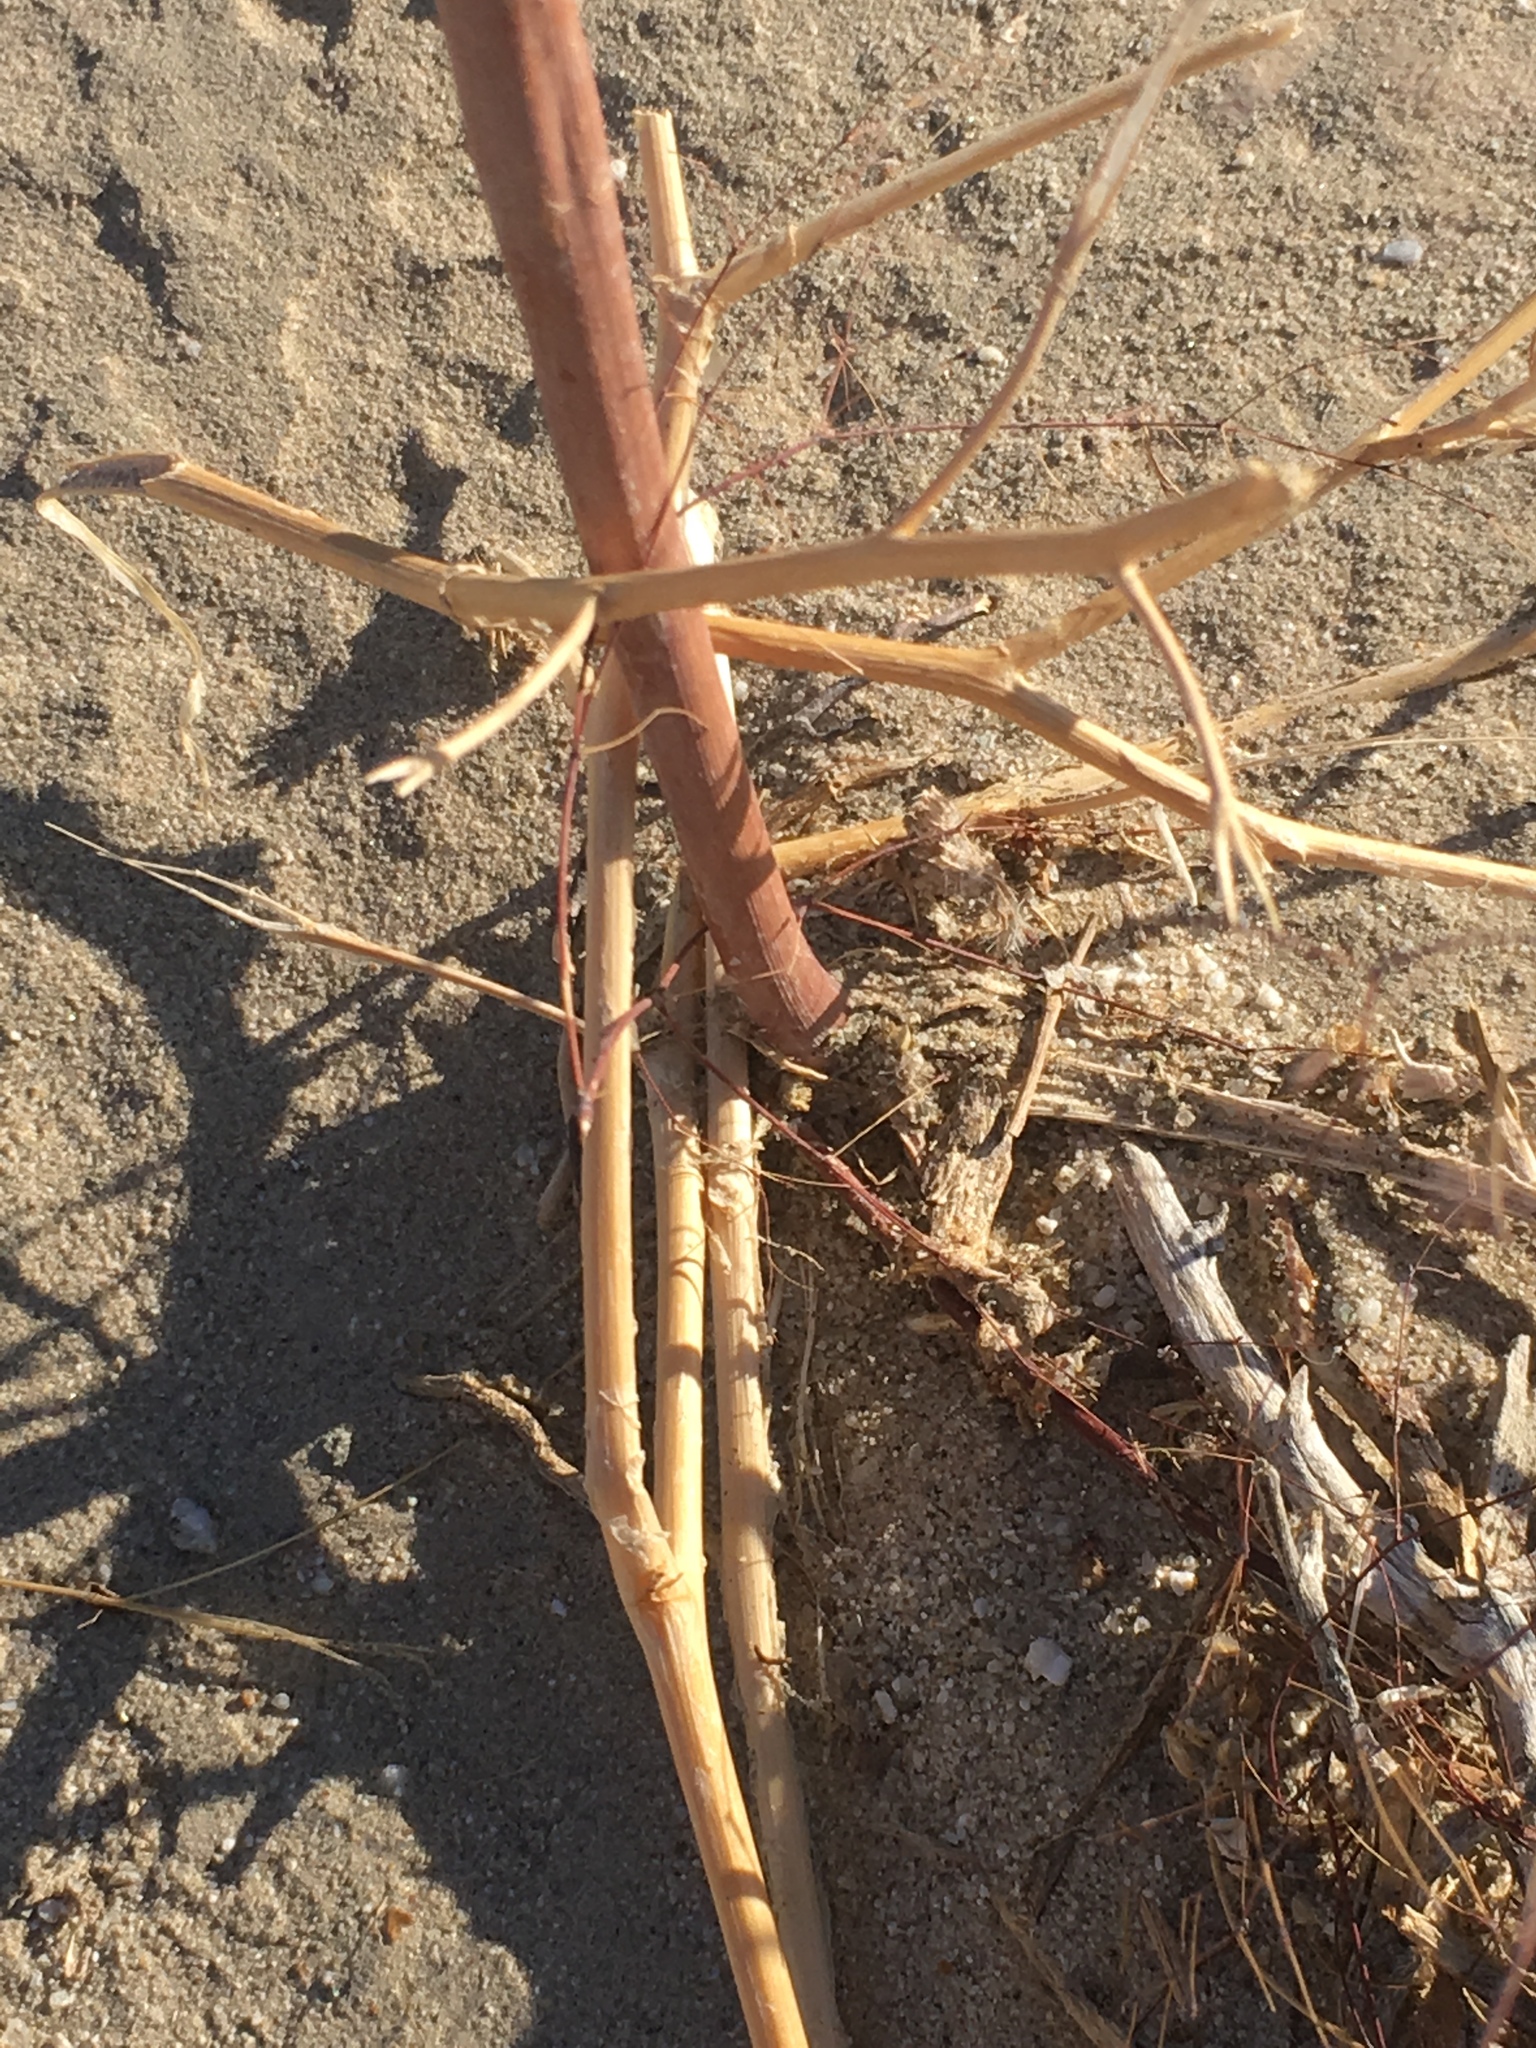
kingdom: Plantae
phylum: Tracheophyta
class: Magnoliopsida
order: Caryophyllales
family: Polygonaceae
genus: Eriogonum
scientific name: Eriogonum trichopes
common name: Little desert trumpet
